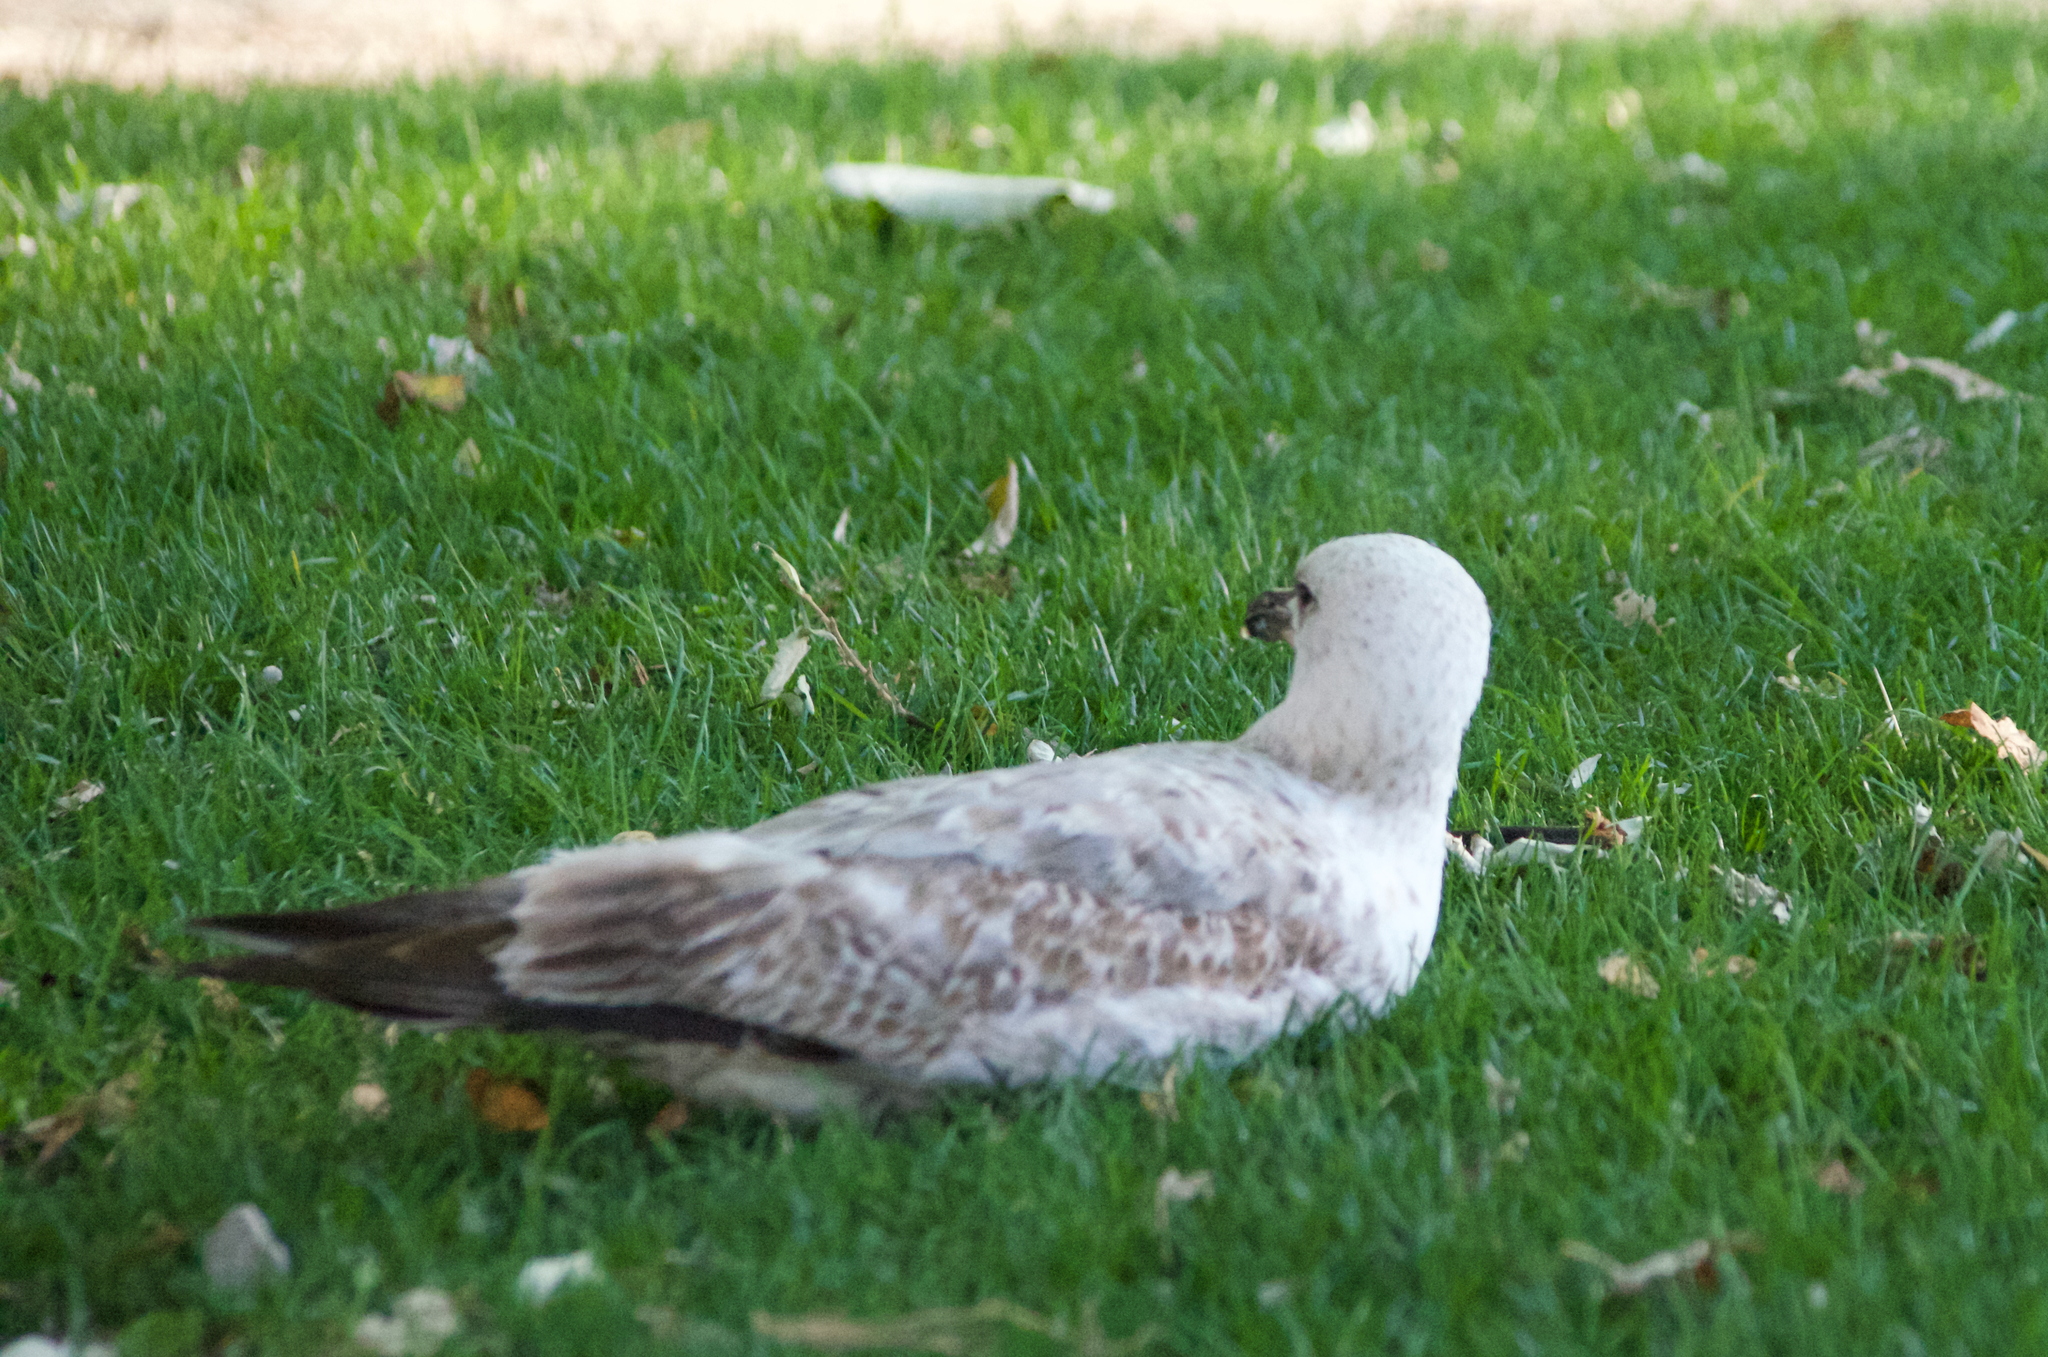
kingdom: Animalia
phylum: Chordata
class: Aves
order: Charadriiformes
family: Laridae
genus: Larus
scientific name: Larus michahellis
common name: Yellow-legged gull
